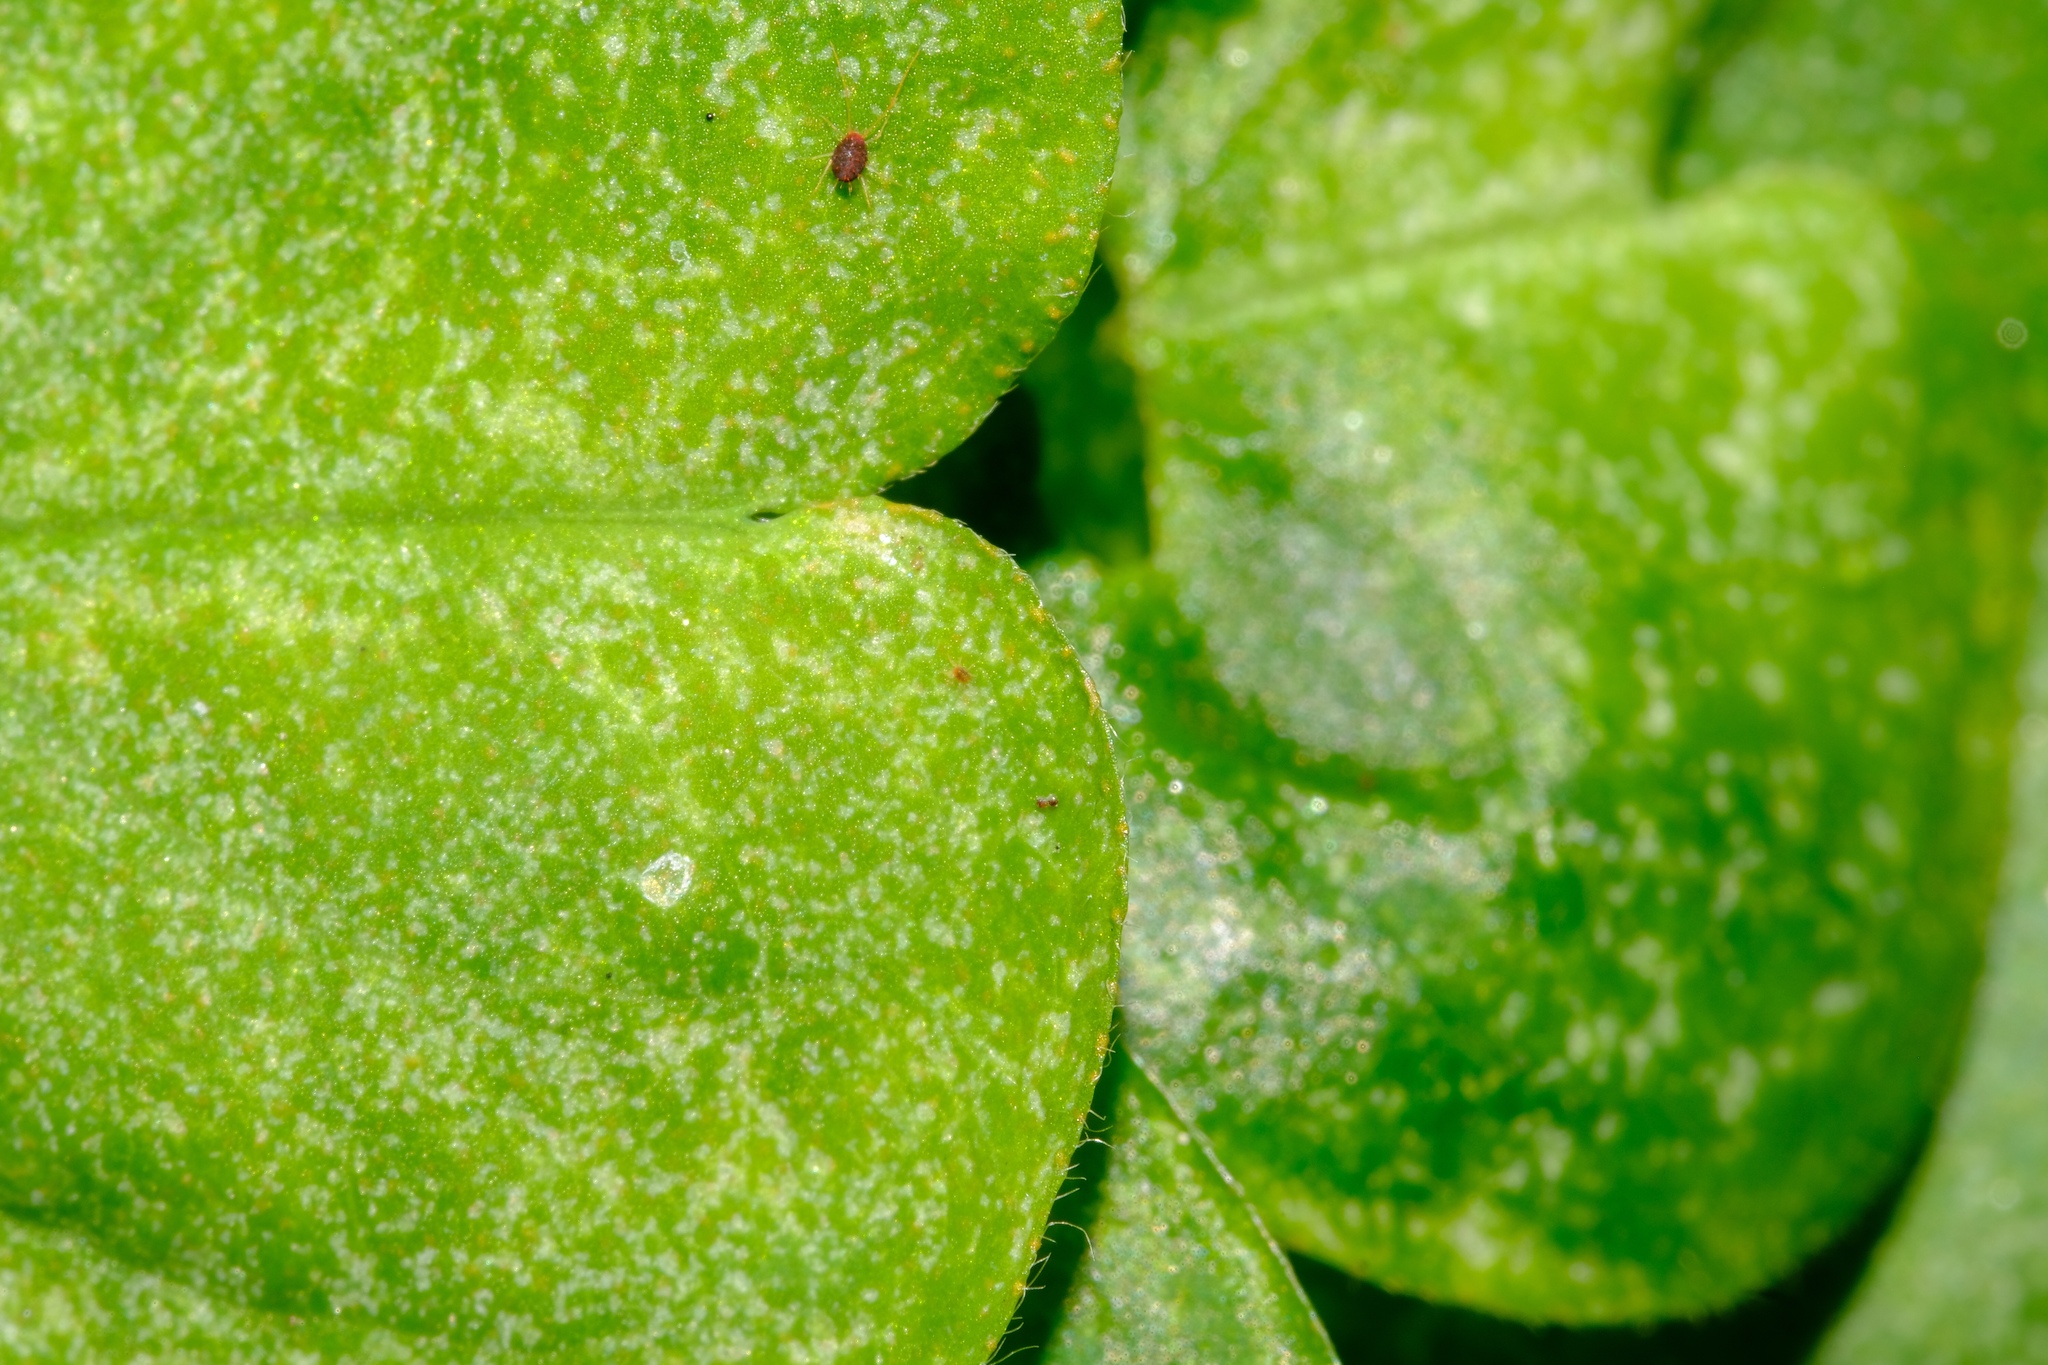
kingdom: Plantae
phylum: Tracheophyta
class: Magnoliopsida
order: Oxalidales
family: Oxalidaceae
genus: Oxalis
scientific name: Oxalis debilis
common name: Large-flowered pink-sorrel
